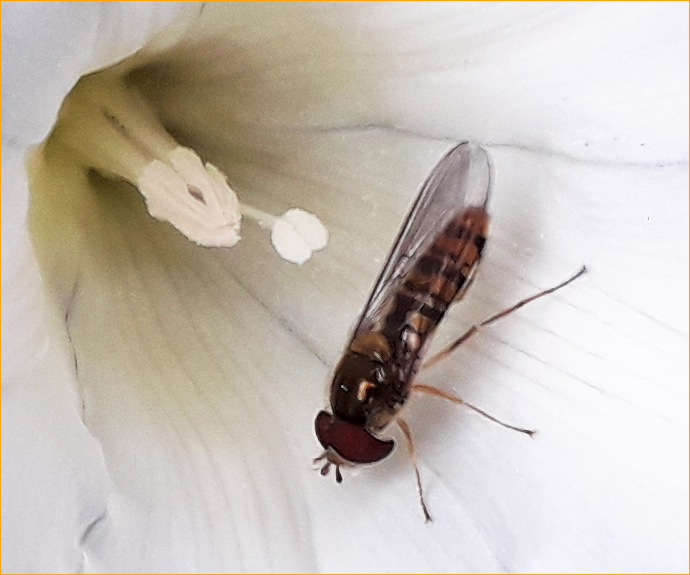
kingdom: Animalia
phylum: Arthropoda
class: Insecta
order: Diptera
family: Syrphidae
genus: Episyrphus
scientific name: Episyrphus balteatus
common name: Marmalade hoverfly
